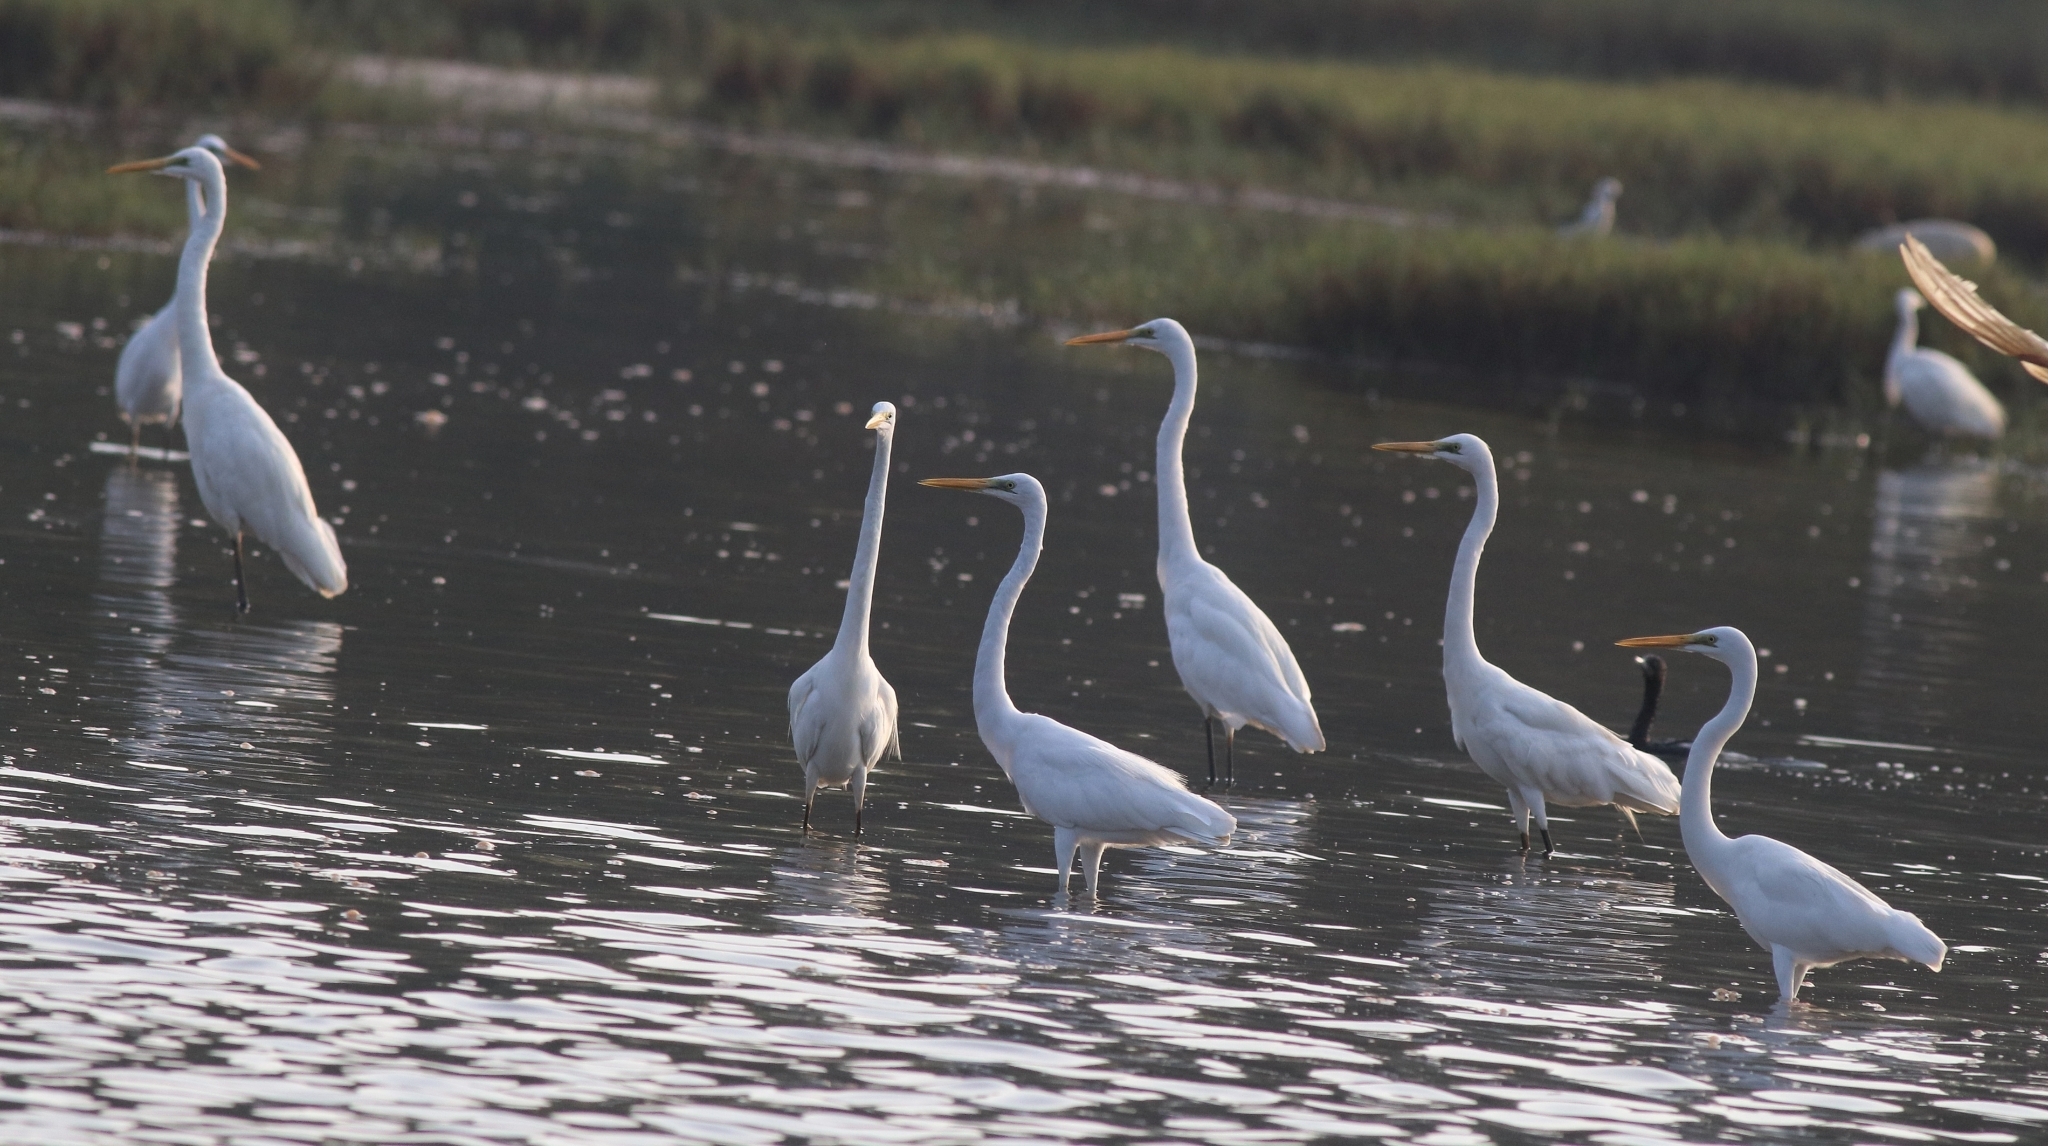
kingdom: Animalia
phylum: Chordata
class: Aves
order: Pelecaniformes
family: Ardeidae
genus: Ardea
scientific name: Ardea alba
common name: Great egret
